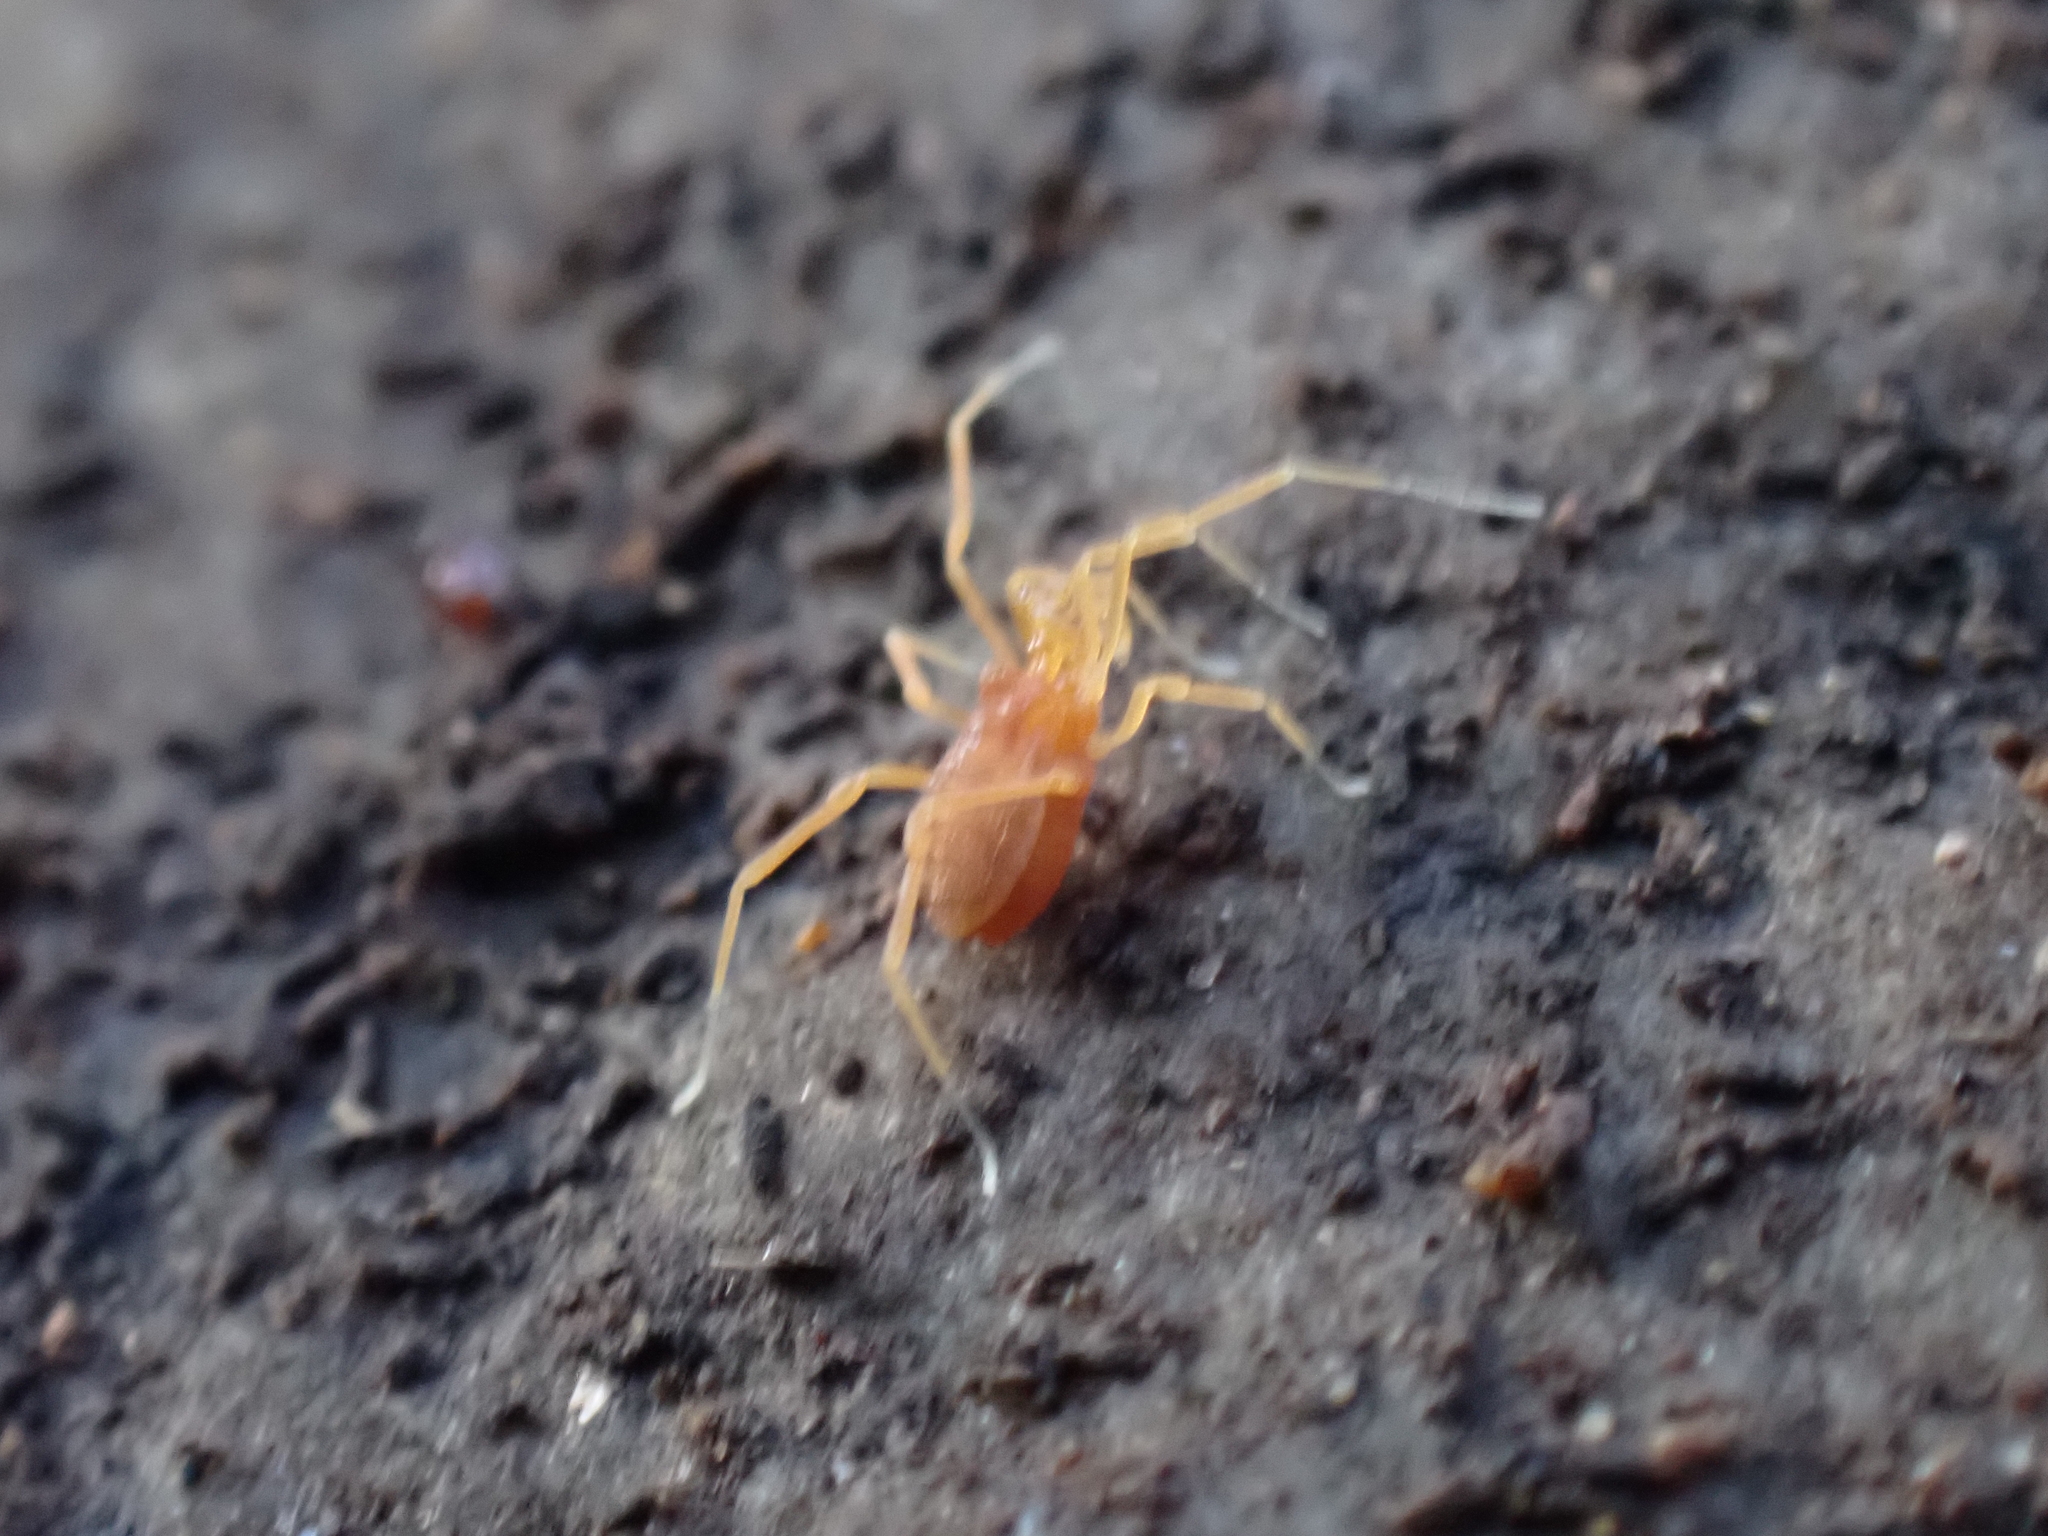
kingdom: Animalia
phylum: Arthropoda
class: Arachnida
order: Opiliones
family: Phalangodidae
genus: Scotolemon
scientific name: Scotolemon doriae
